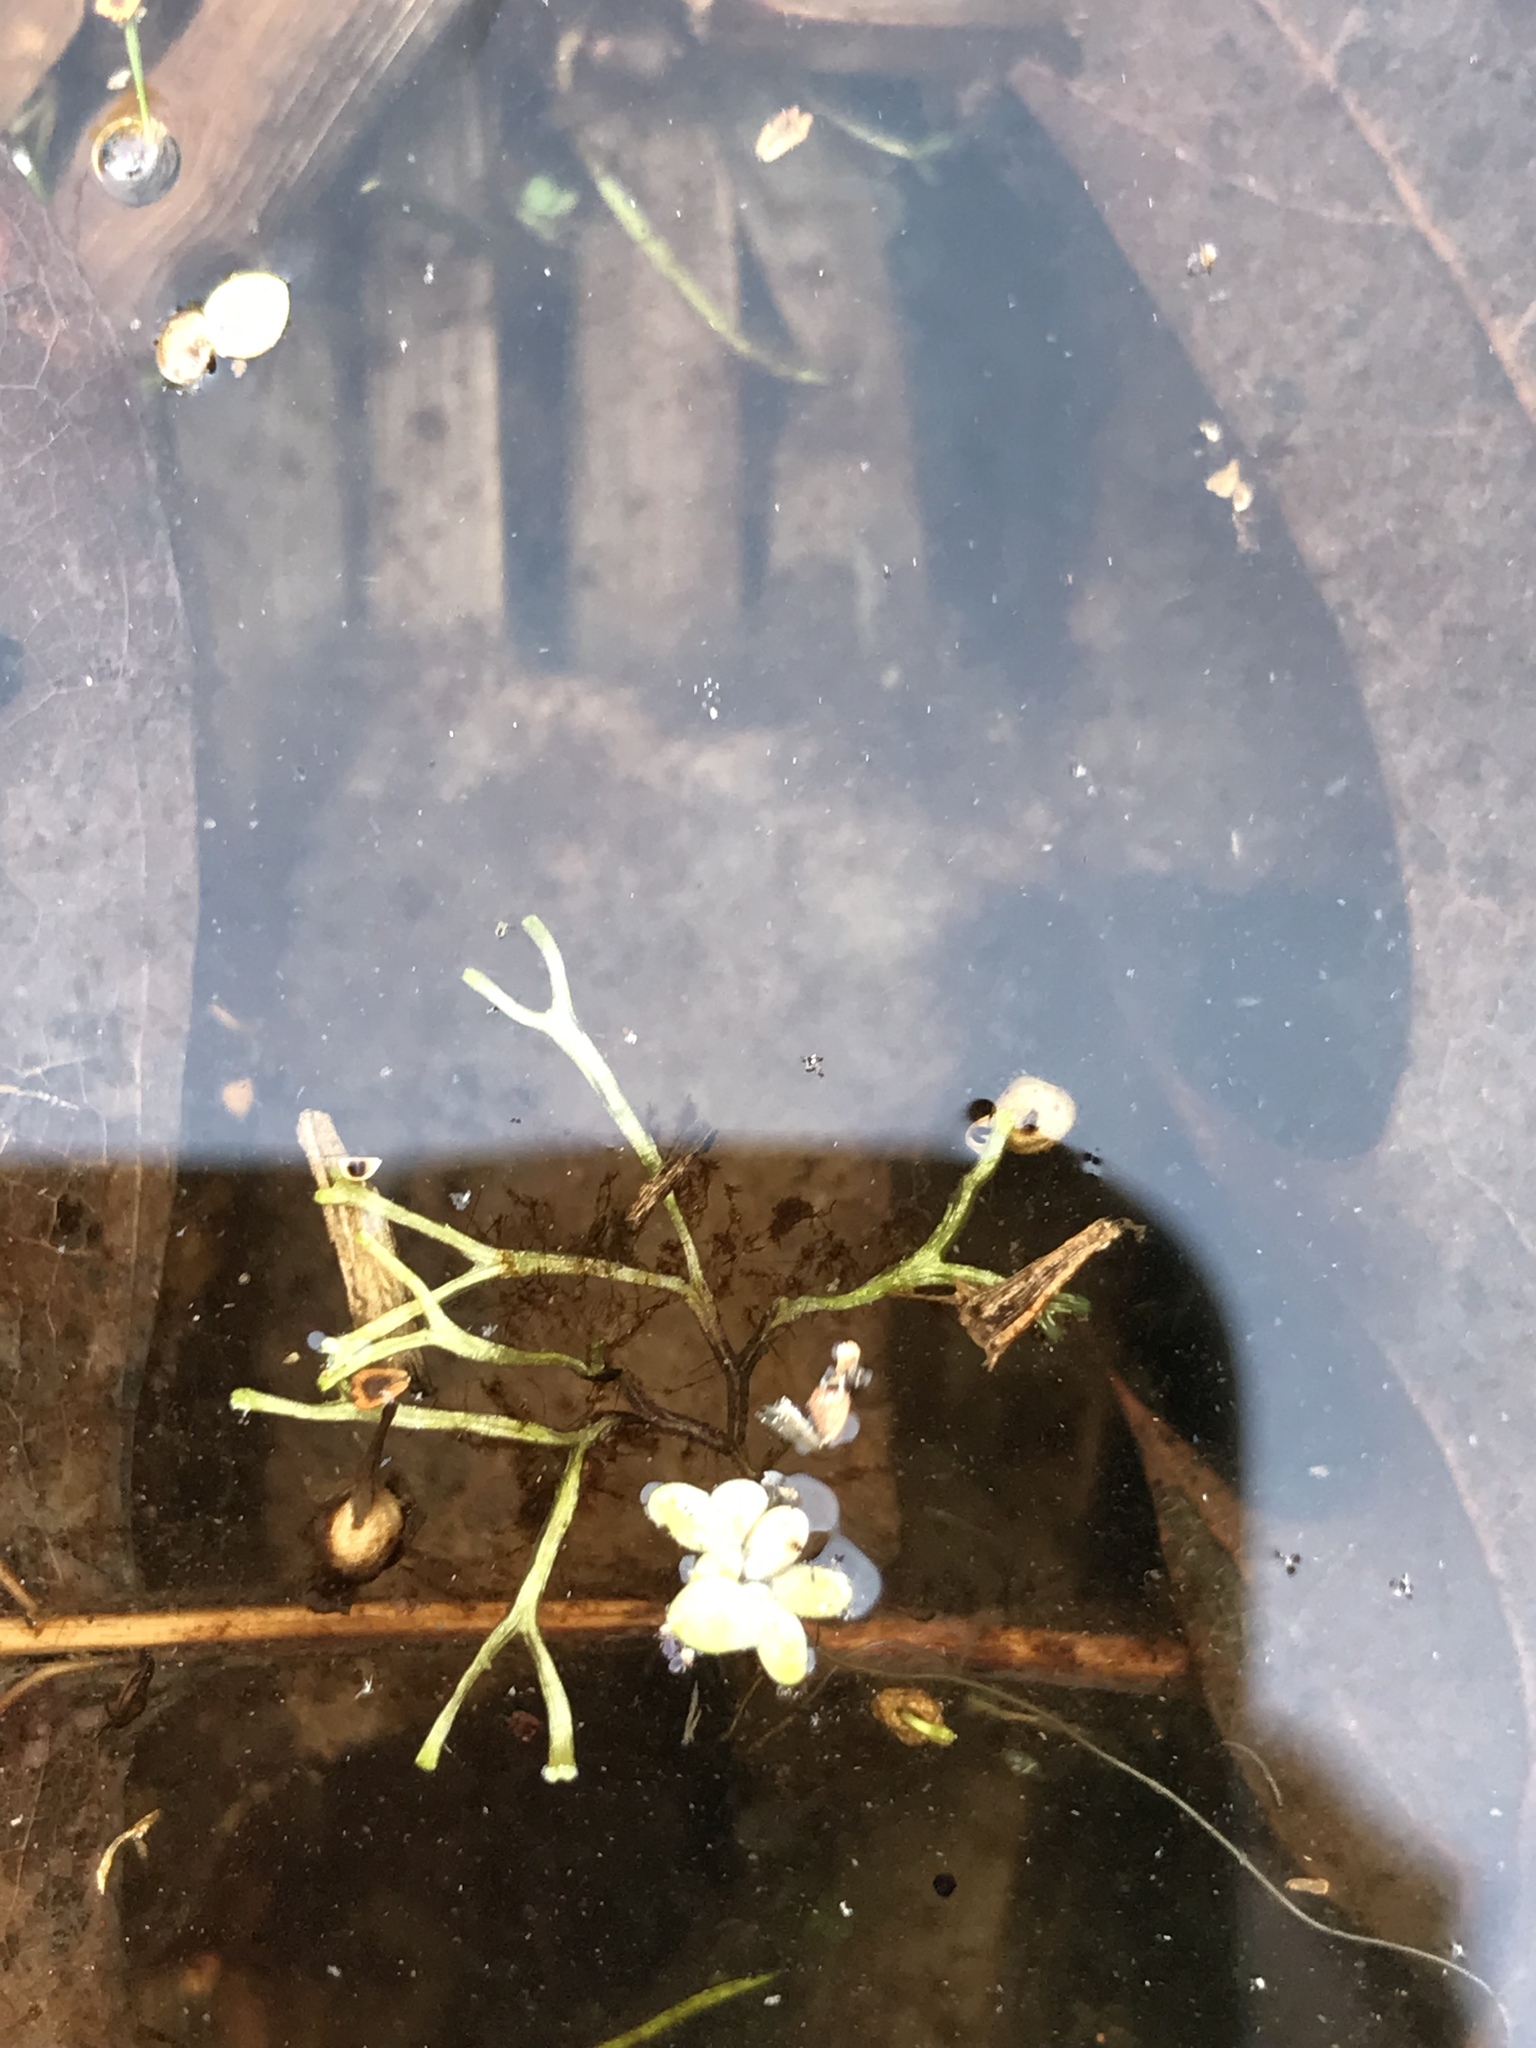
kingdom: Plantae
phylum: Marchantiophyta
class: Marchantiopsida
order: Marchantiales
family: Ricciaceae
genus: Riccia
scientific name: Riccia fluitans
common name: Floating crystalwort
